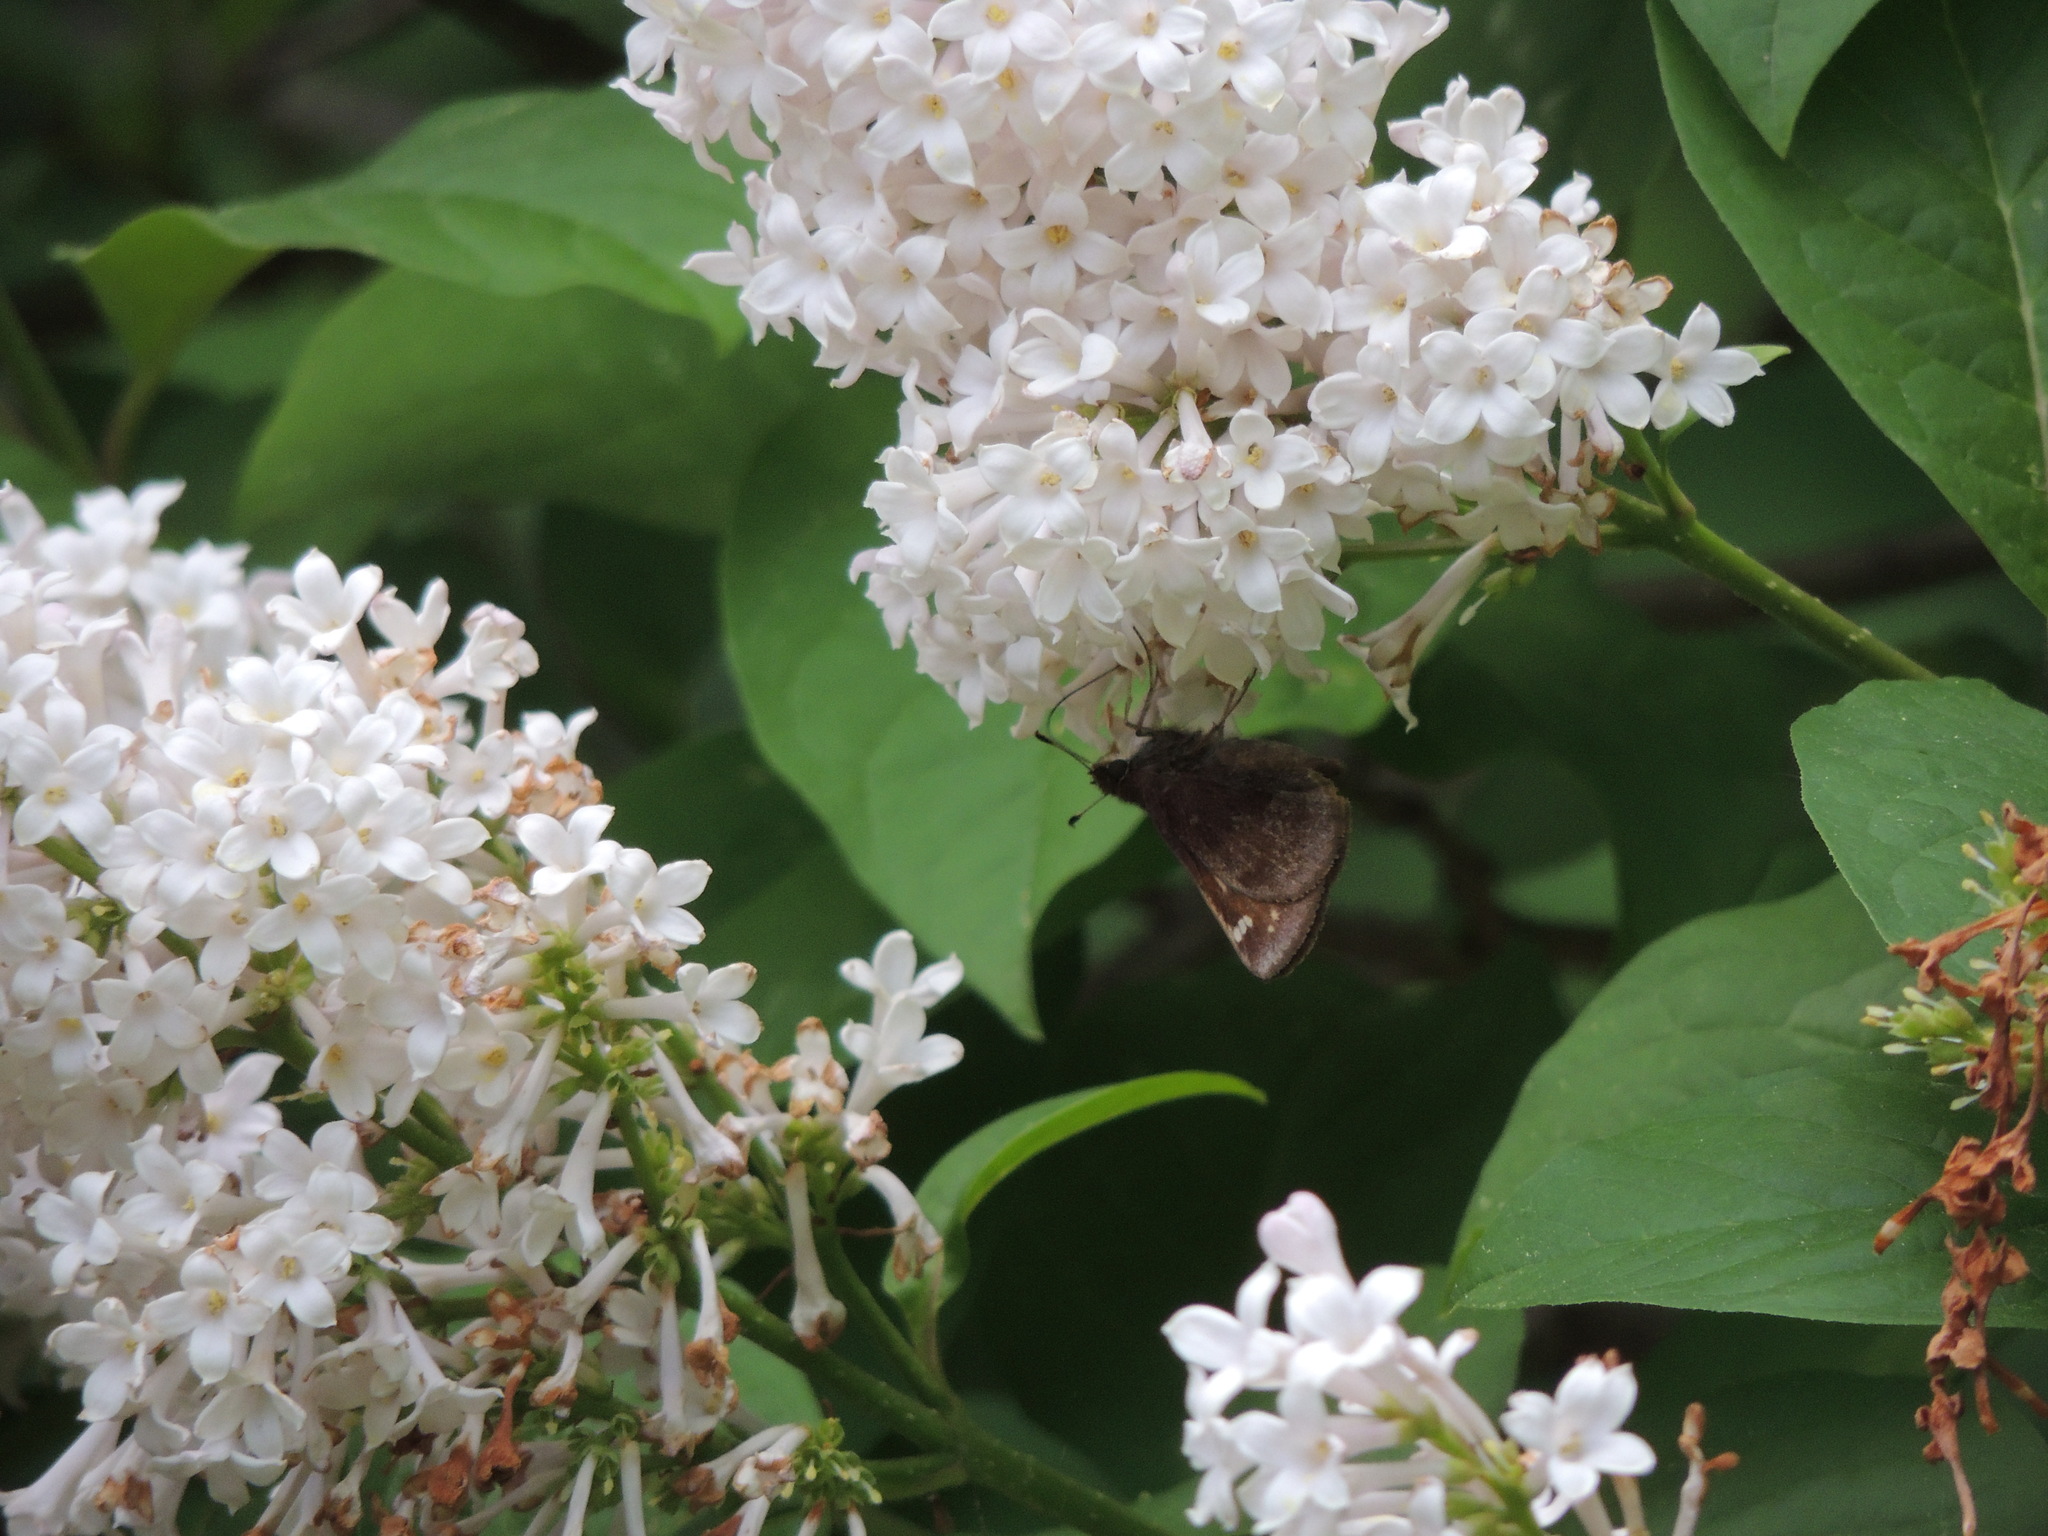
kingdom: Animalia
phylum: Arthropoda
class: Insecta
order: Lepidoptera
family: Hesperiidae
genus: Lon
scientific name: Lon hobomok
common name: Hobomok skipper
